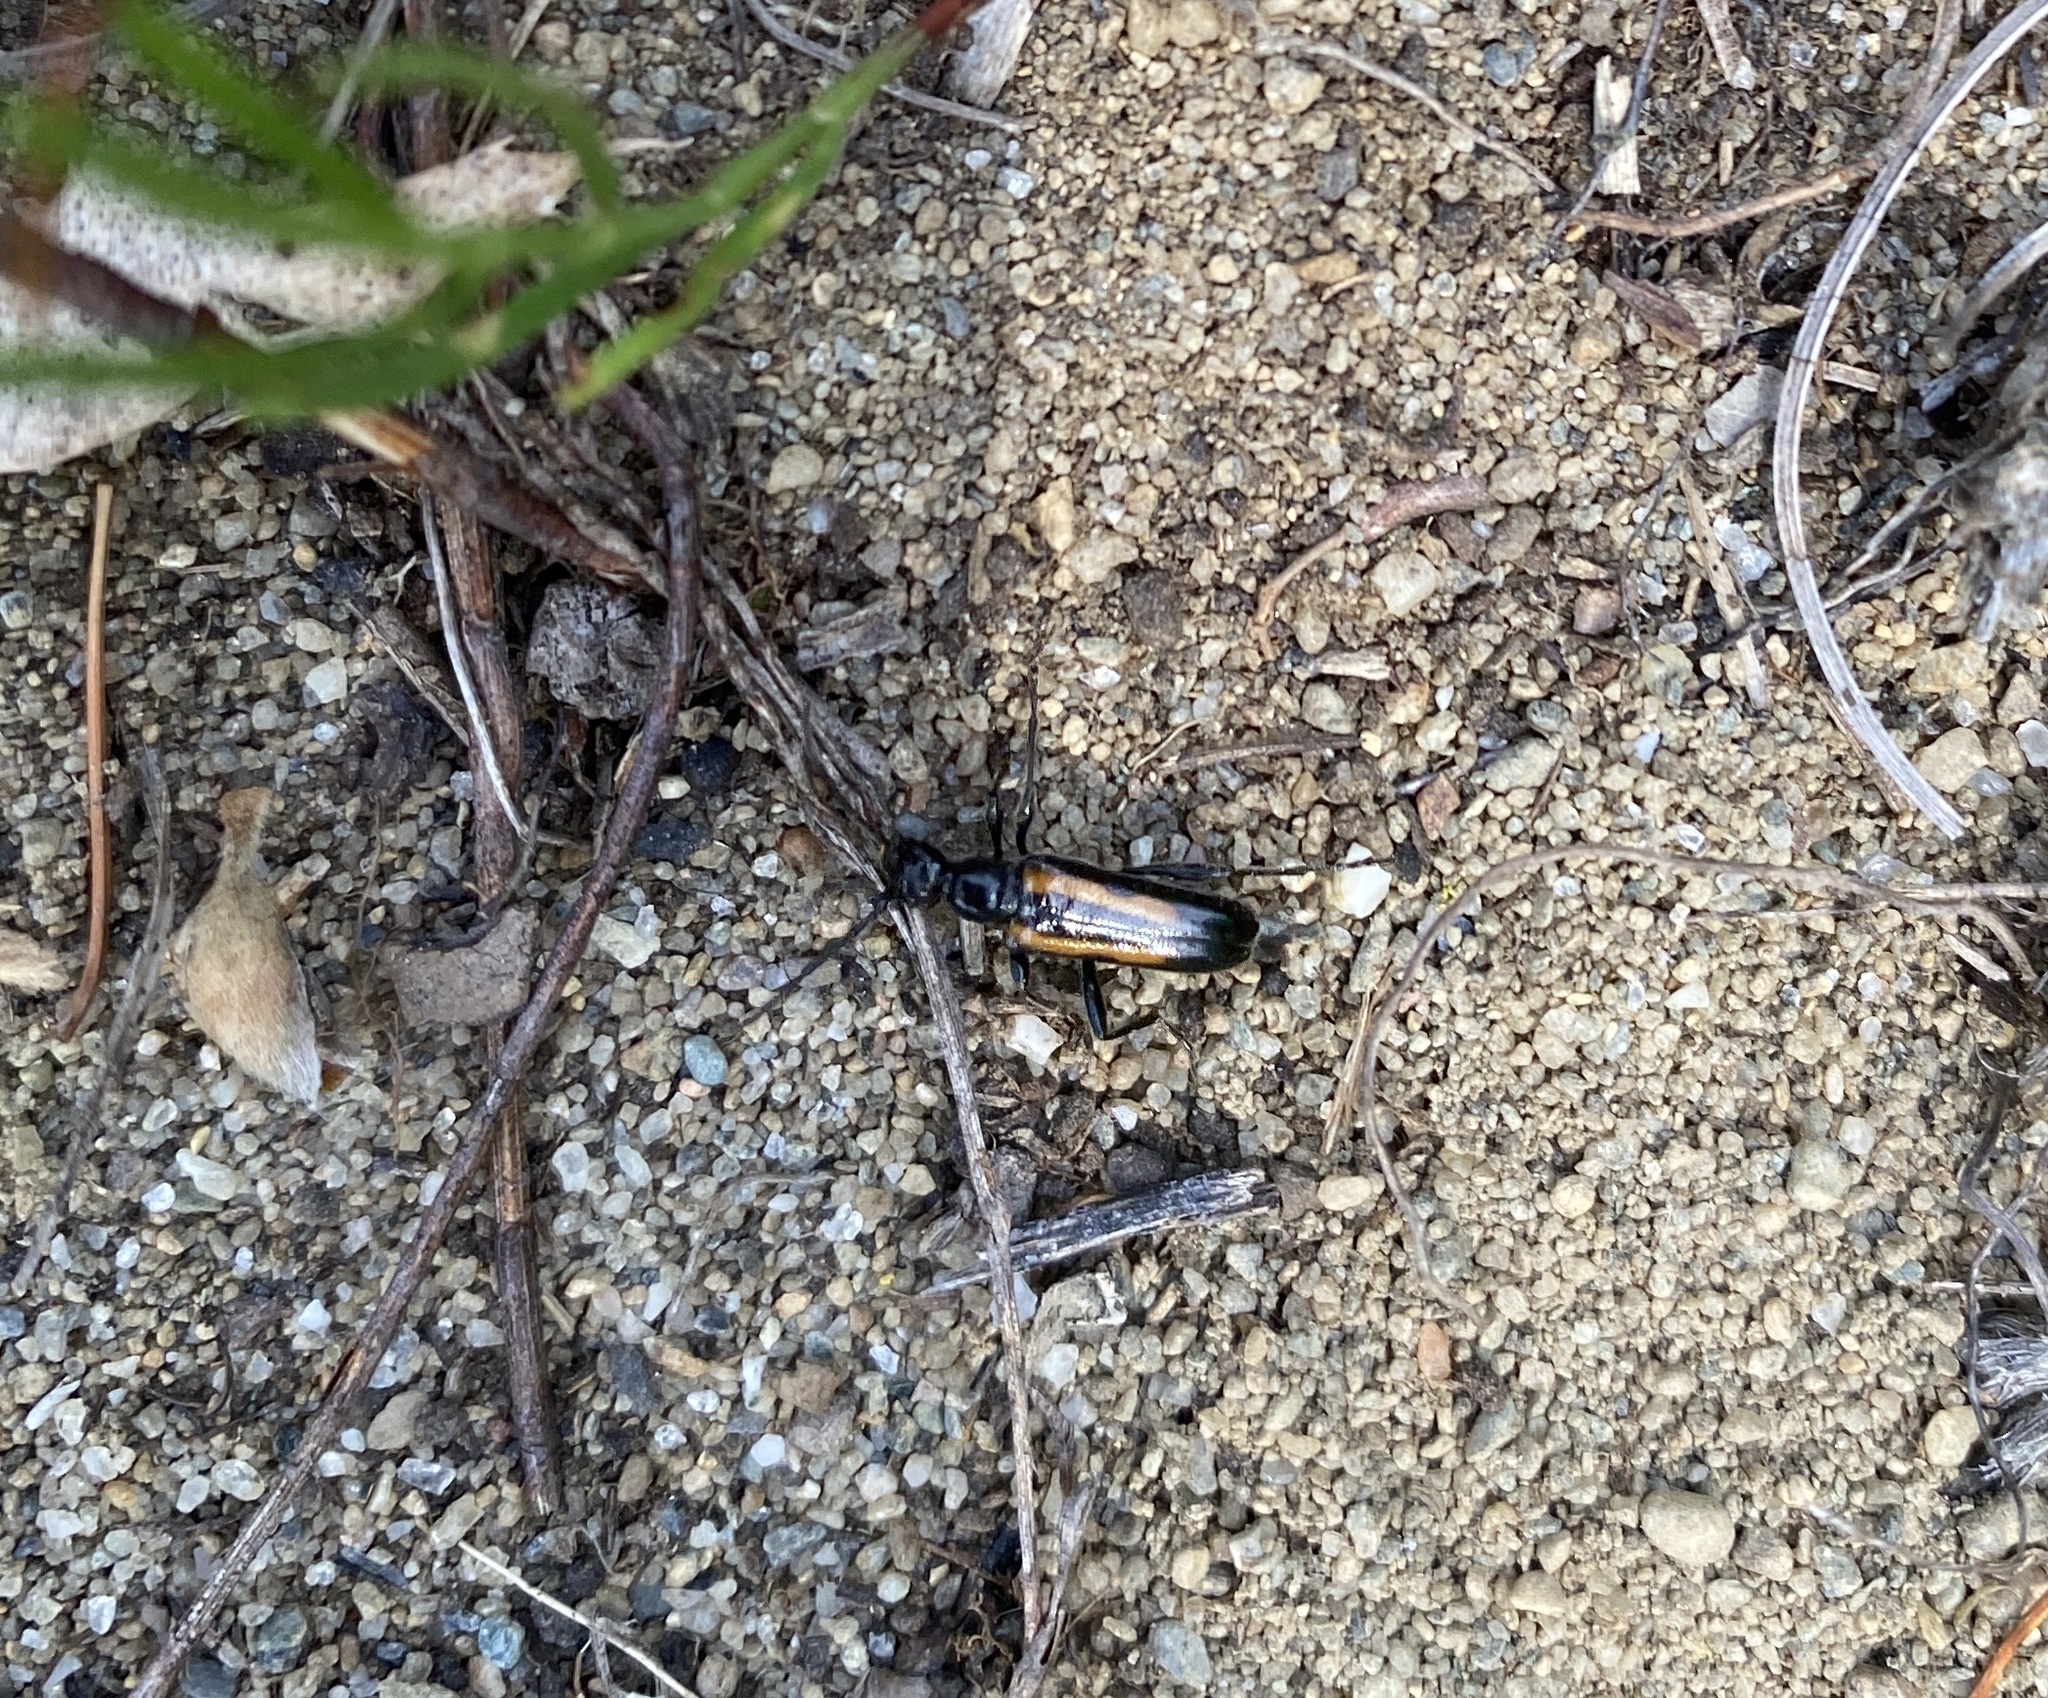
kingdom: Animalia
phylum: Arthropoda
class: Insecta
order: Coleoptera
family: Cerambycidae
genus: Strangalepta
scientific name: Strangalepta abbreviata
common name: Strangalepta flower longhorn beetle
